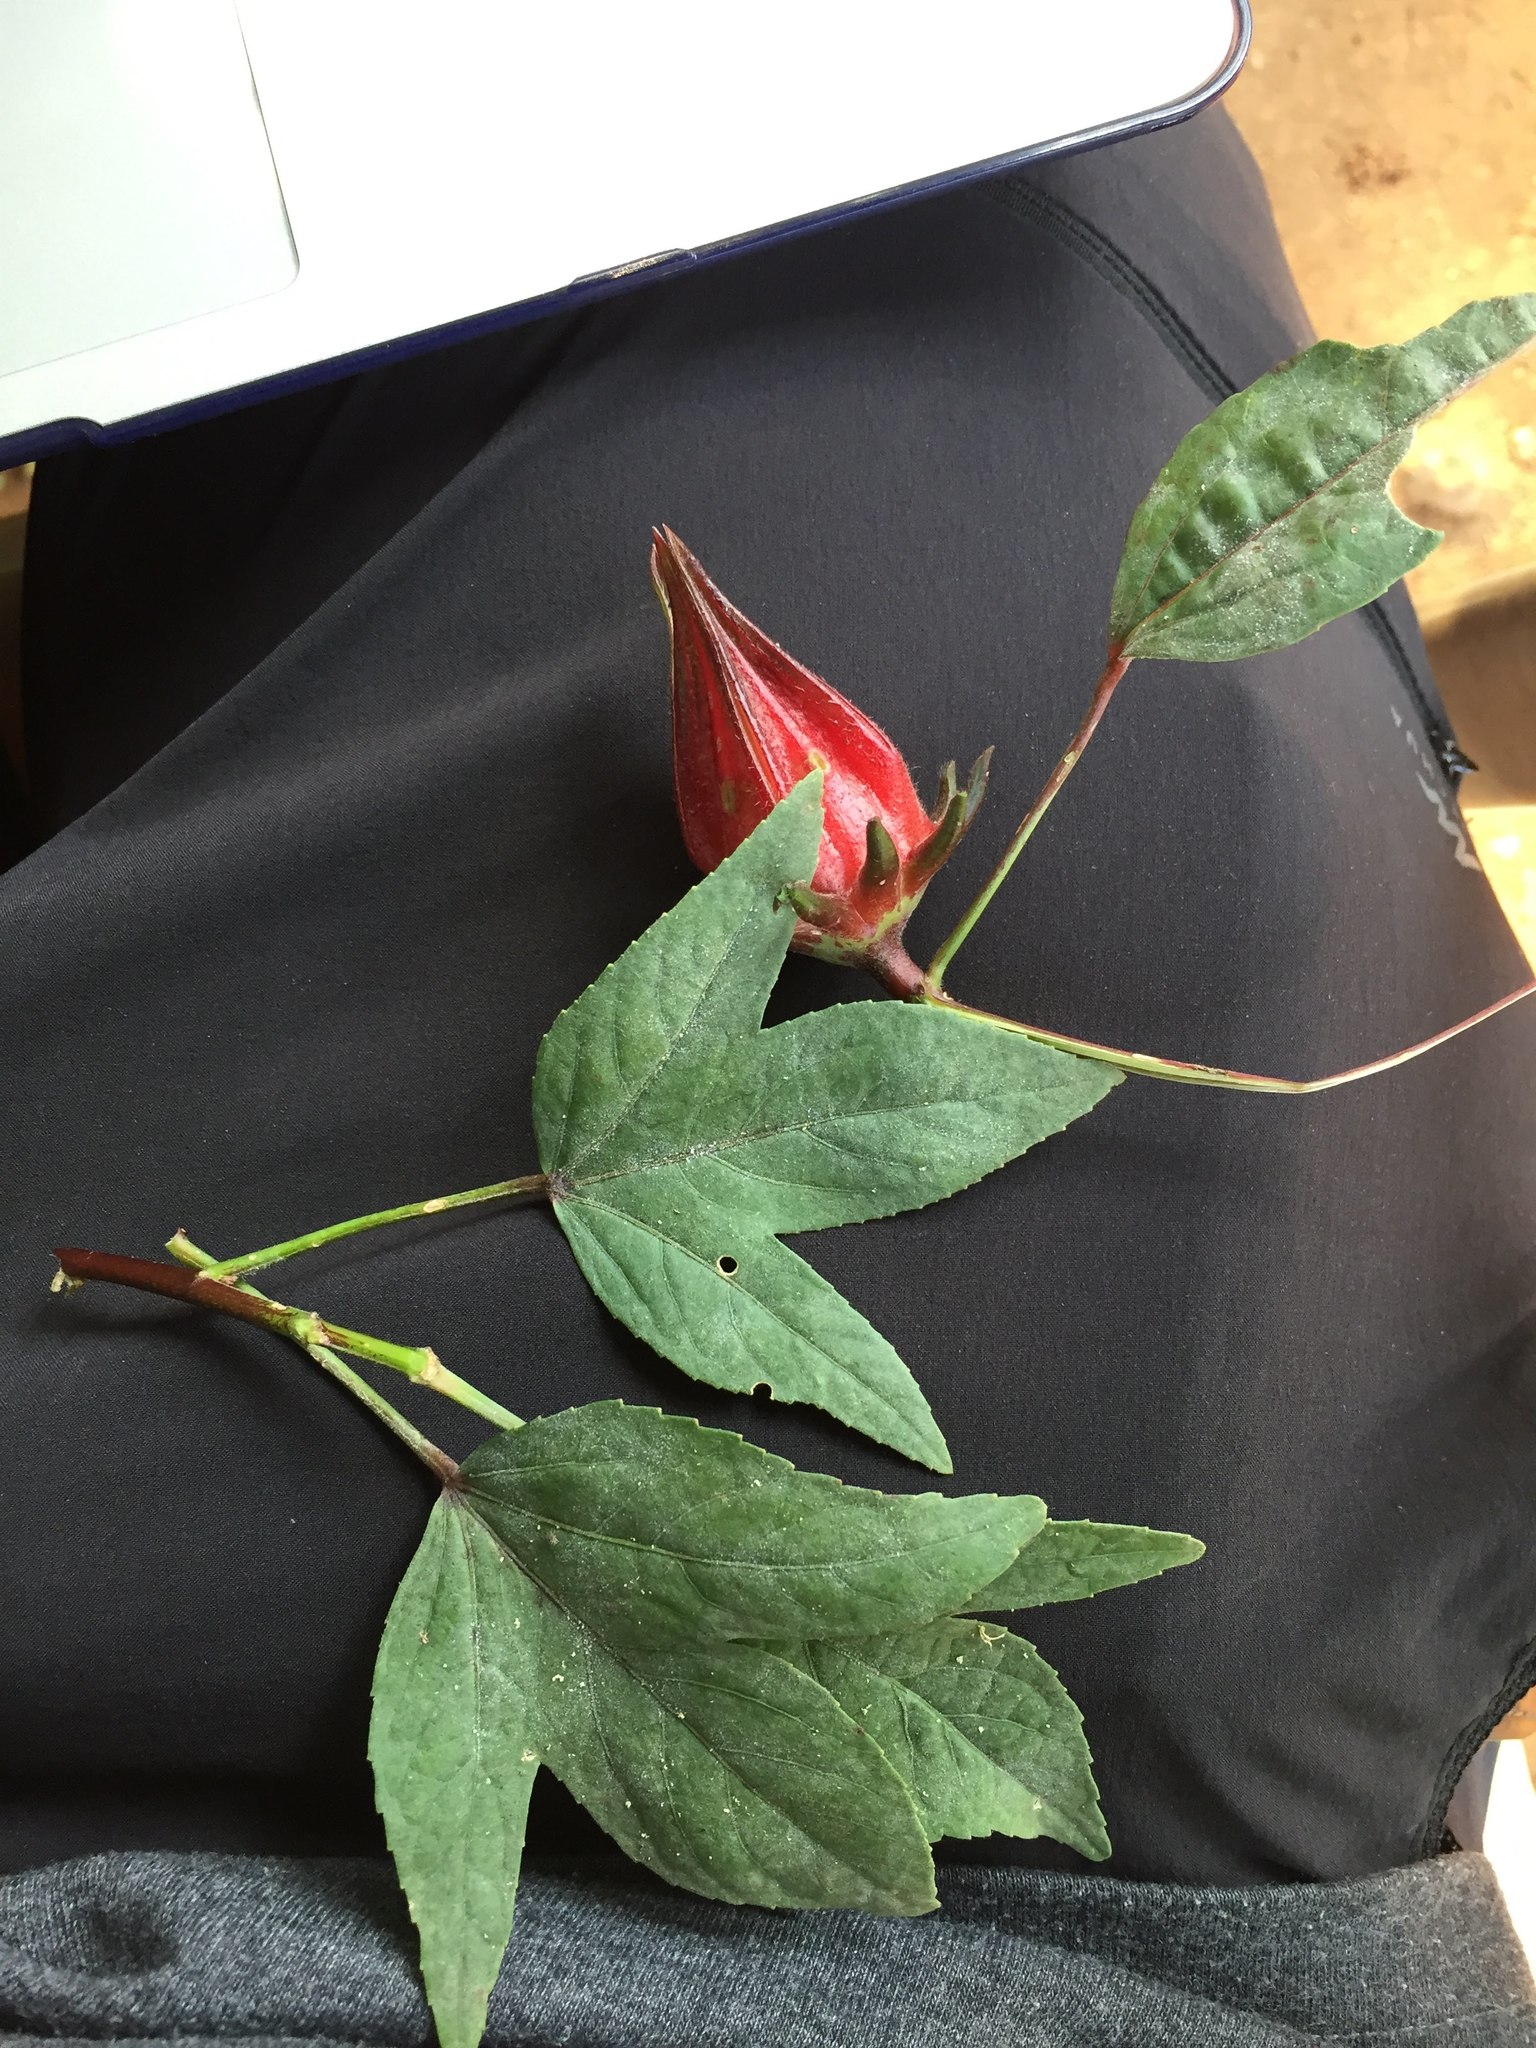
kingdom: Plantae
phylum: Tracheophyta
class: Magnoliopsida
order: Malvales
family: Malvaceae
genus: Hibiscus
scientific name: Hibiscus sabdariffa
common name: Roselle
